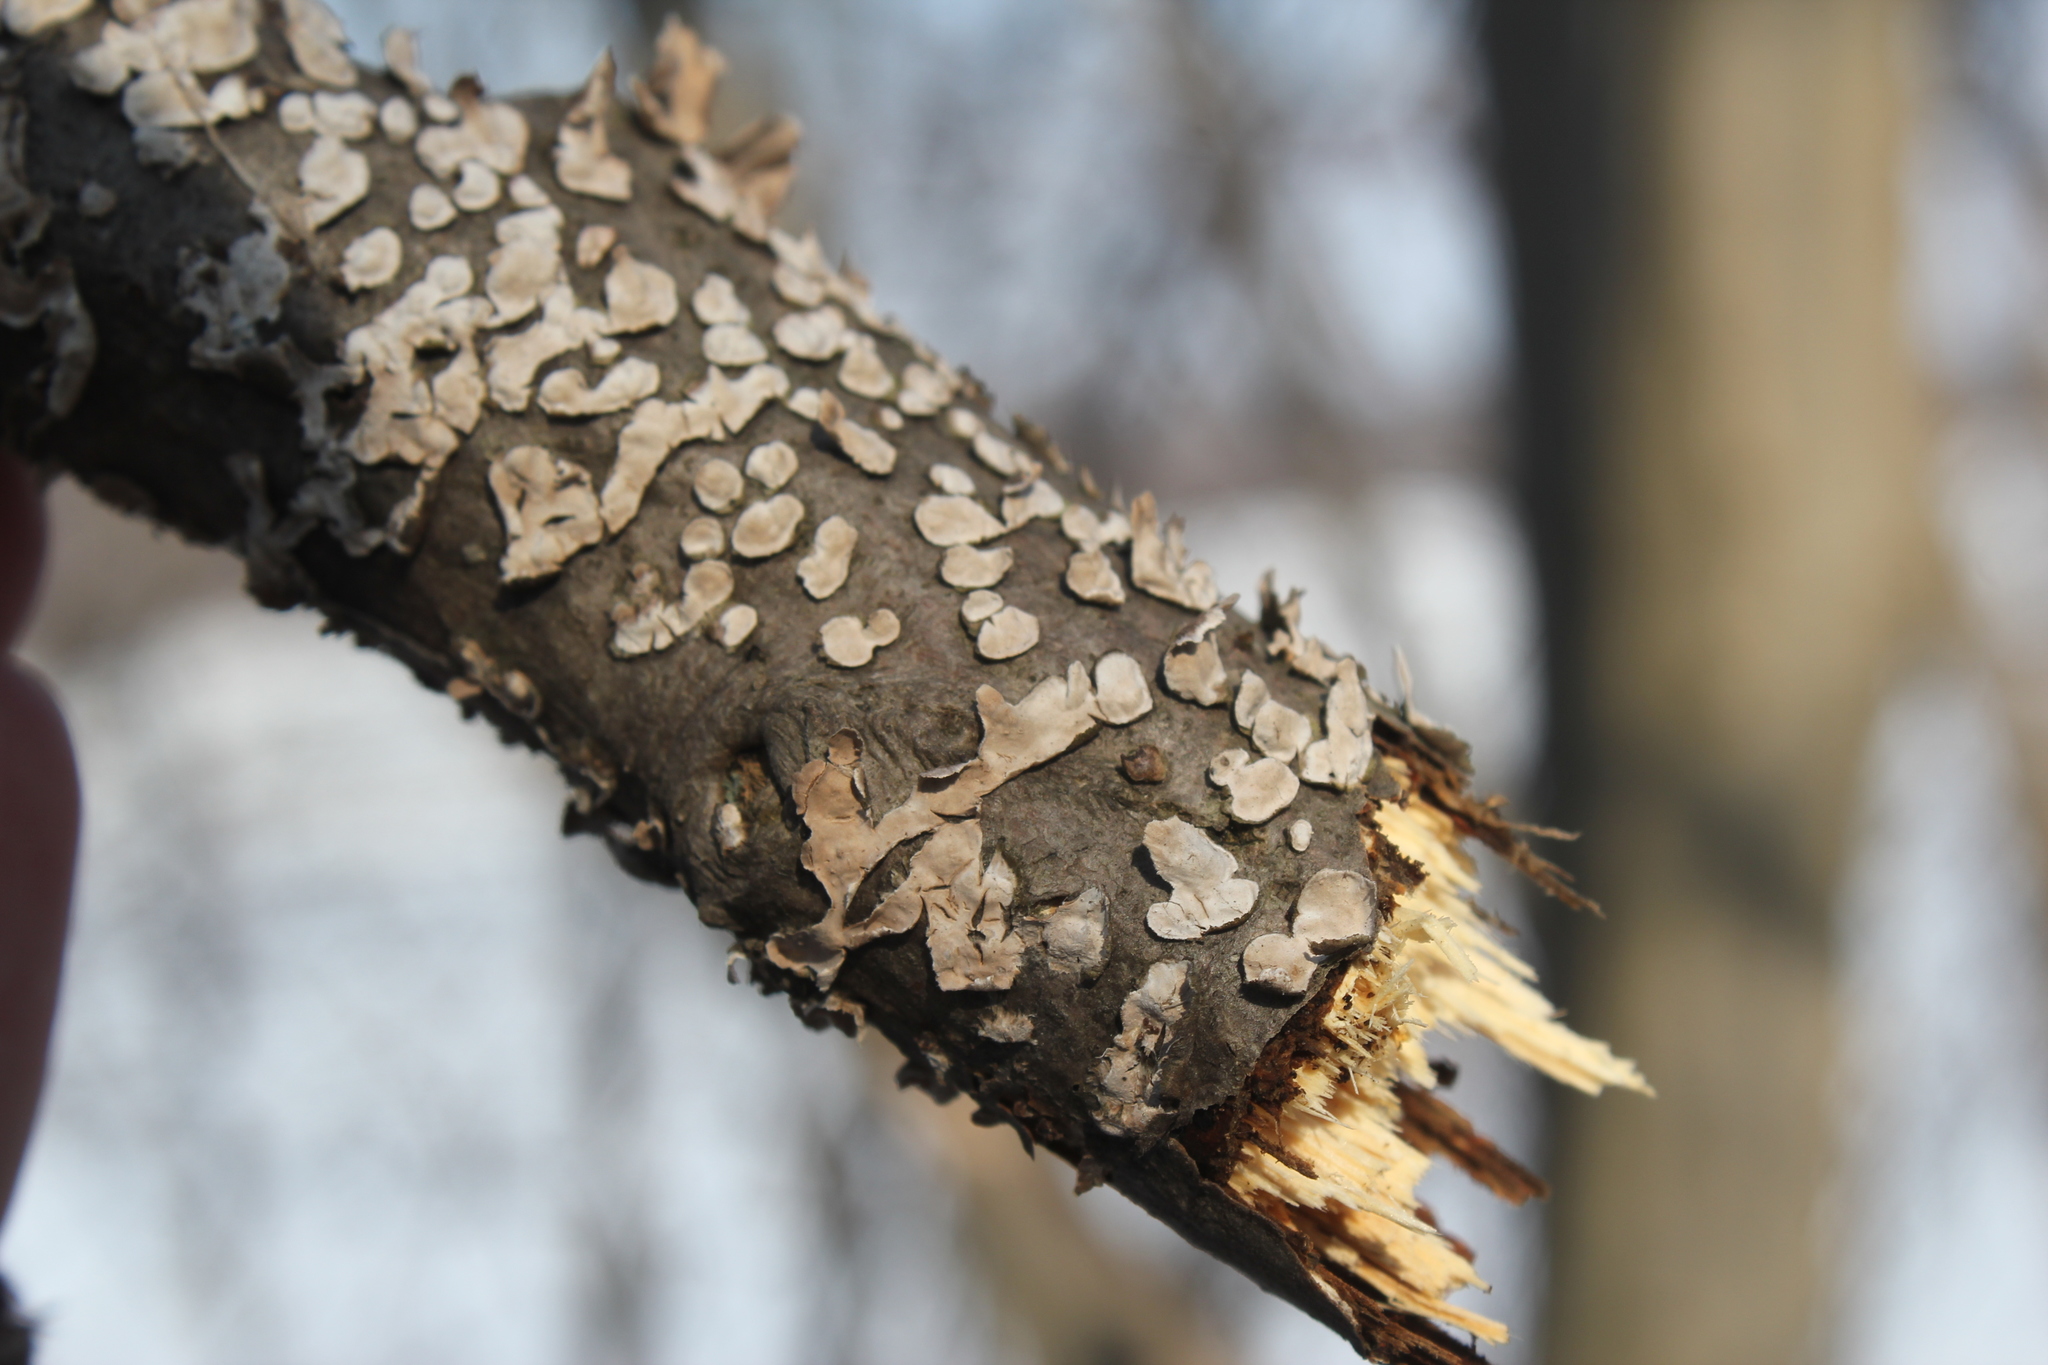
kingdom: Fungi
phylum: Basidiomycota
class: Agaricomycetes
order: Russulales
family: Stereaceae
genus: Stereum
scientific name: Stereum striatum
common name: Silky parchment
